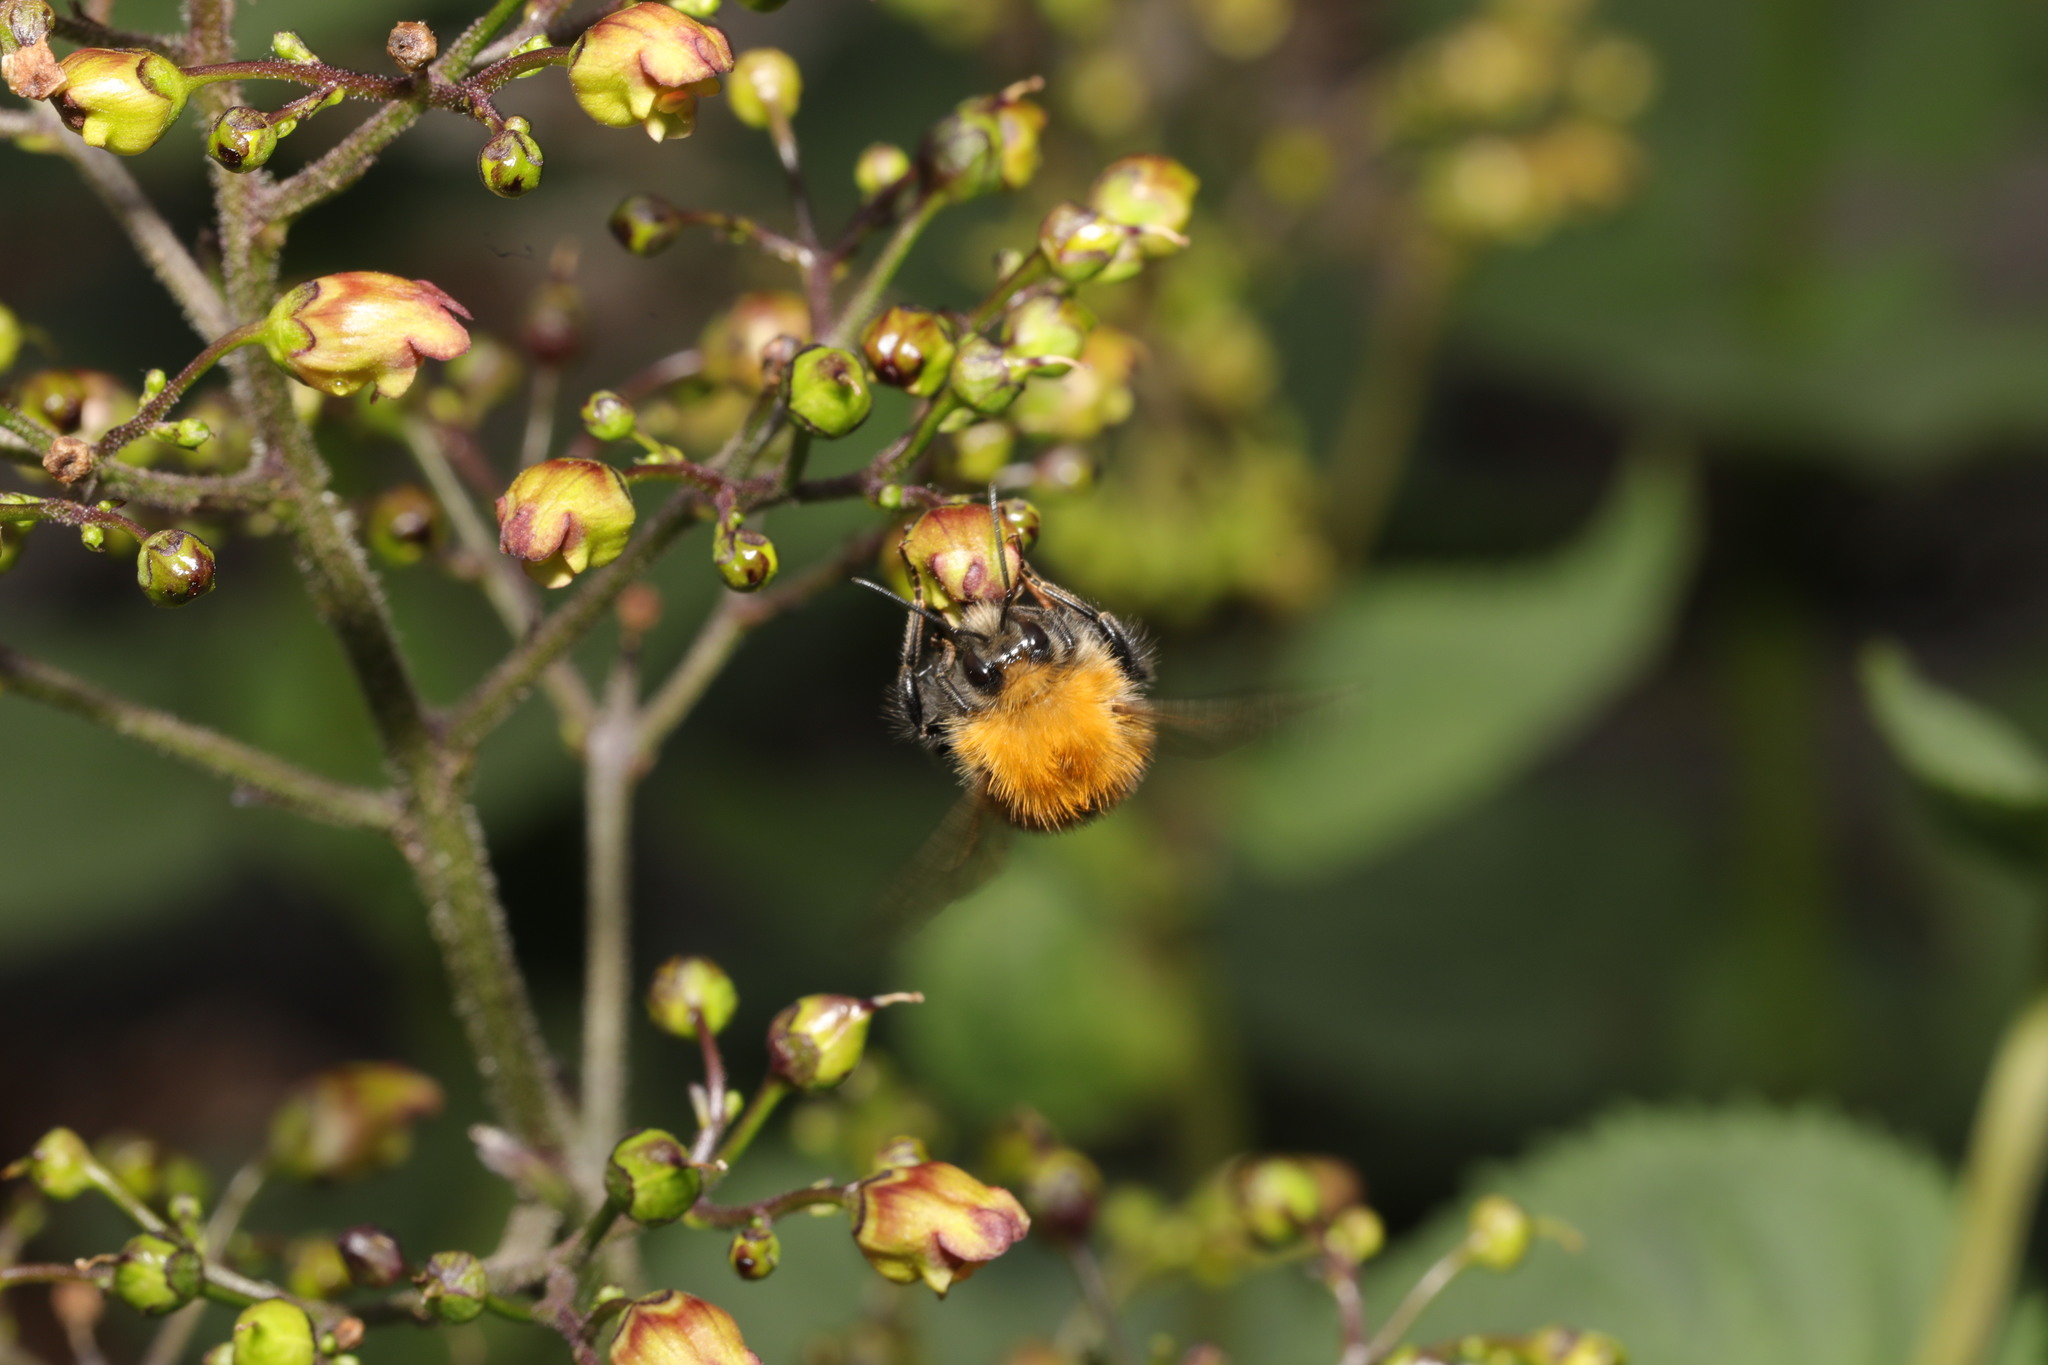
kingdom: Animalia
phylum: Arthropoda
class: Insecta
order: Hymenoptera
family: Apidae
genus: Bombus
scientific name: Bombus hypnorum
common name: New garden bumblebee
